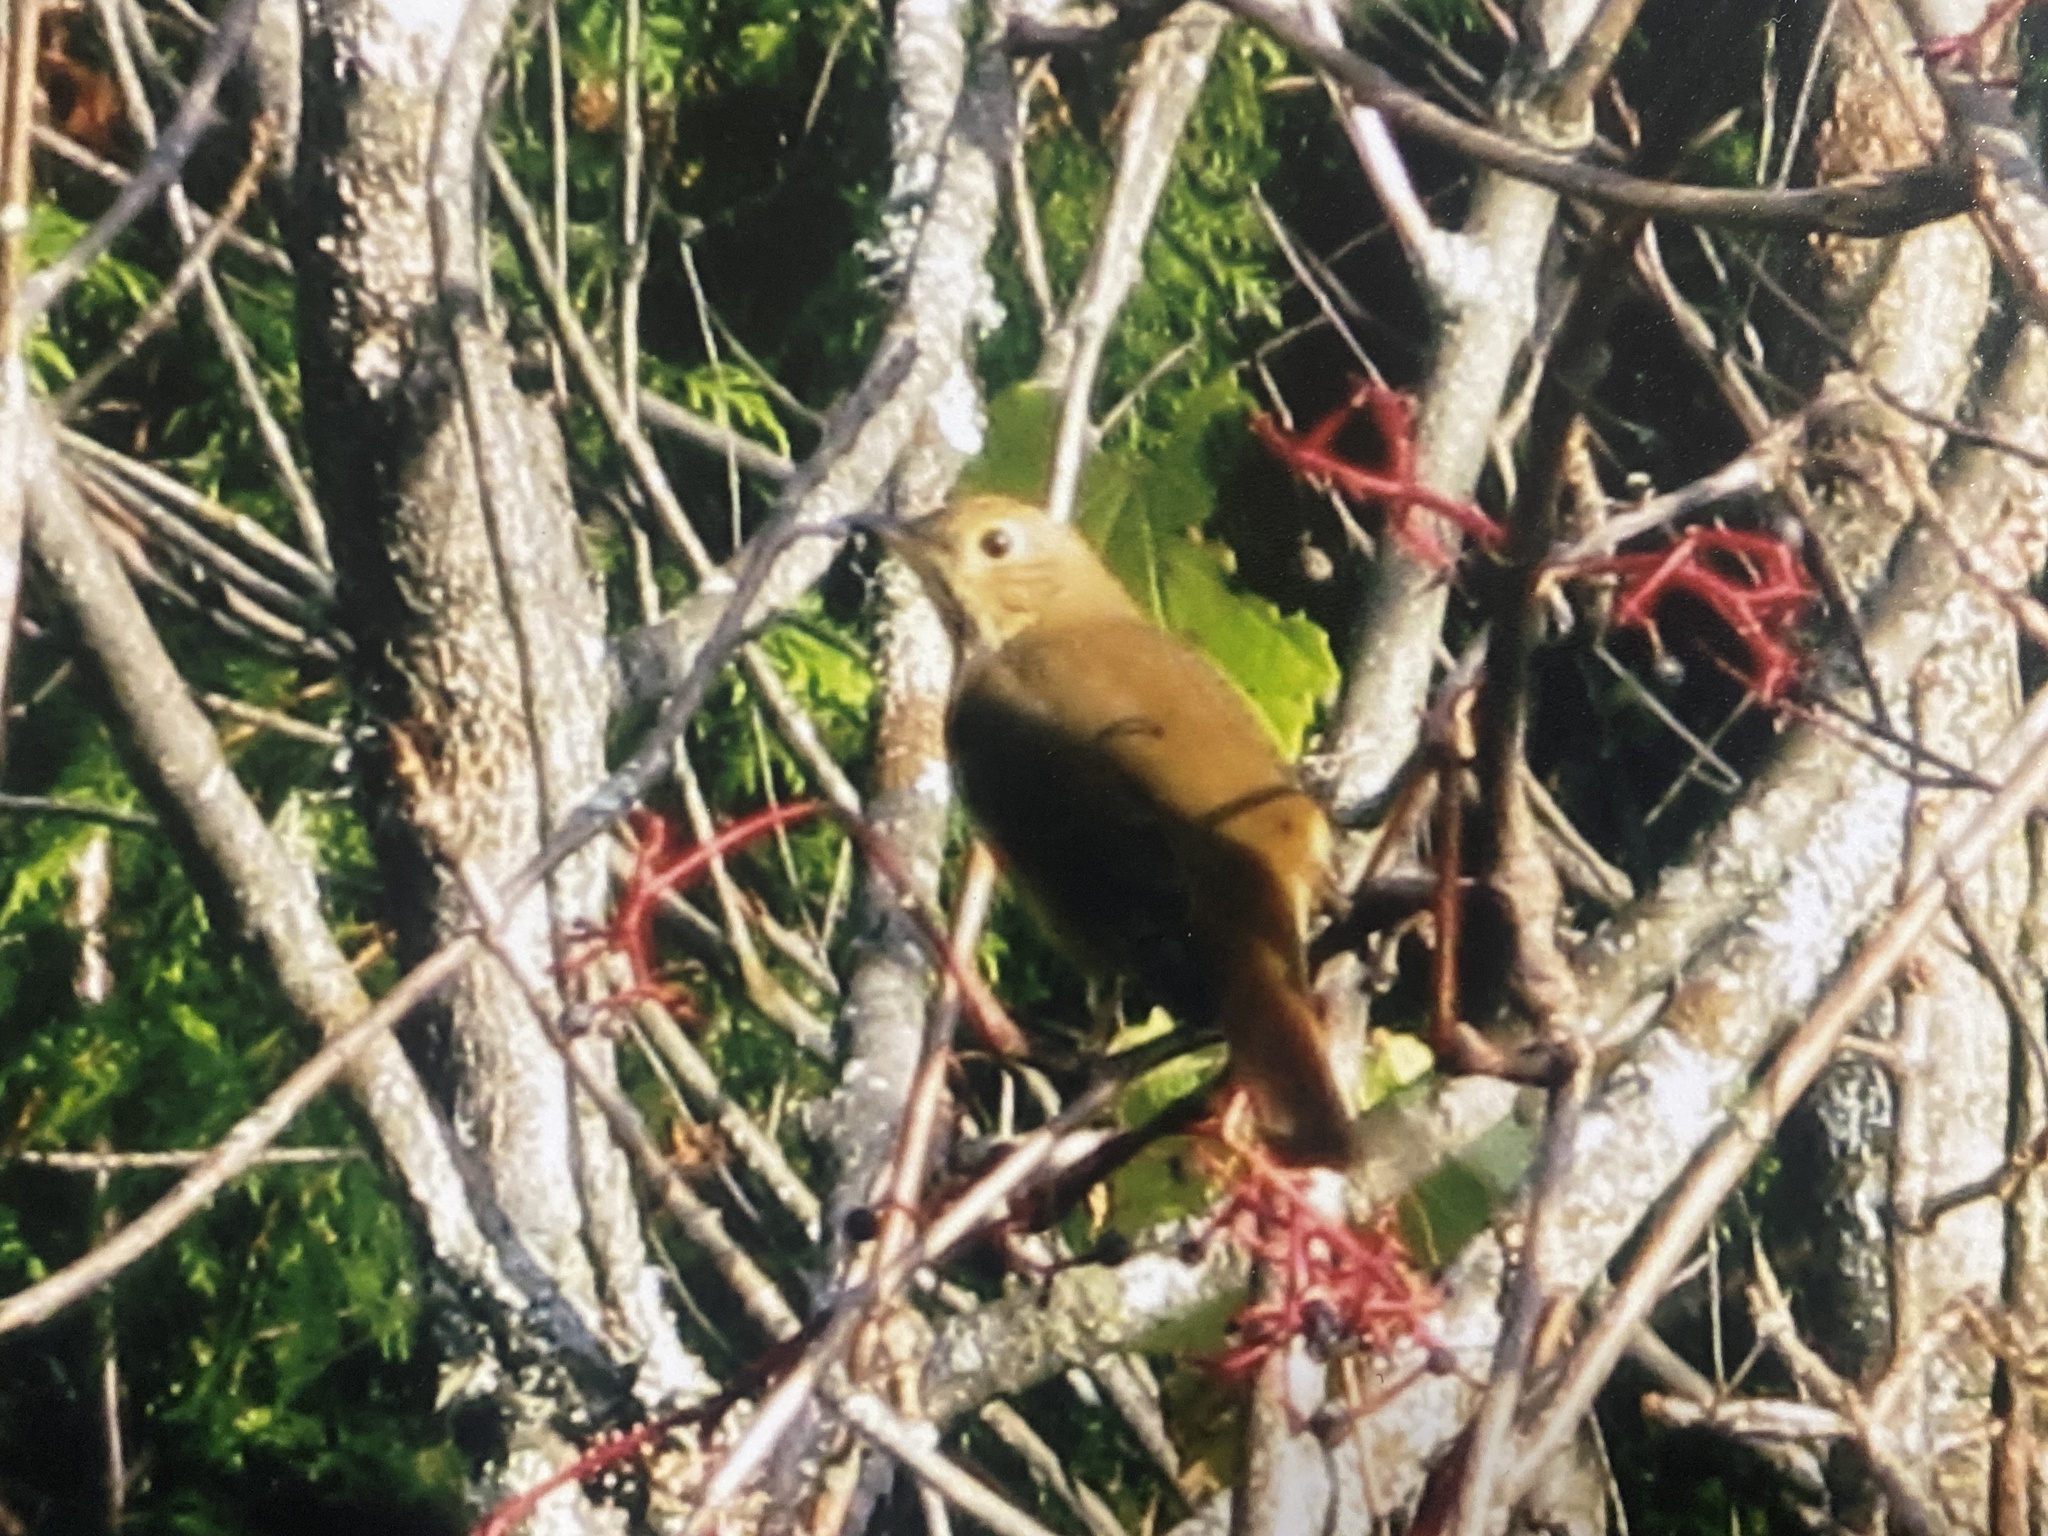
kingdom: Animalia
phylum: Chordata
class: Aves
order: Passeriformes
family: Turdidae
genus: Catharus
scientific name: Catharus guttatus
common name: Hermit thrush
